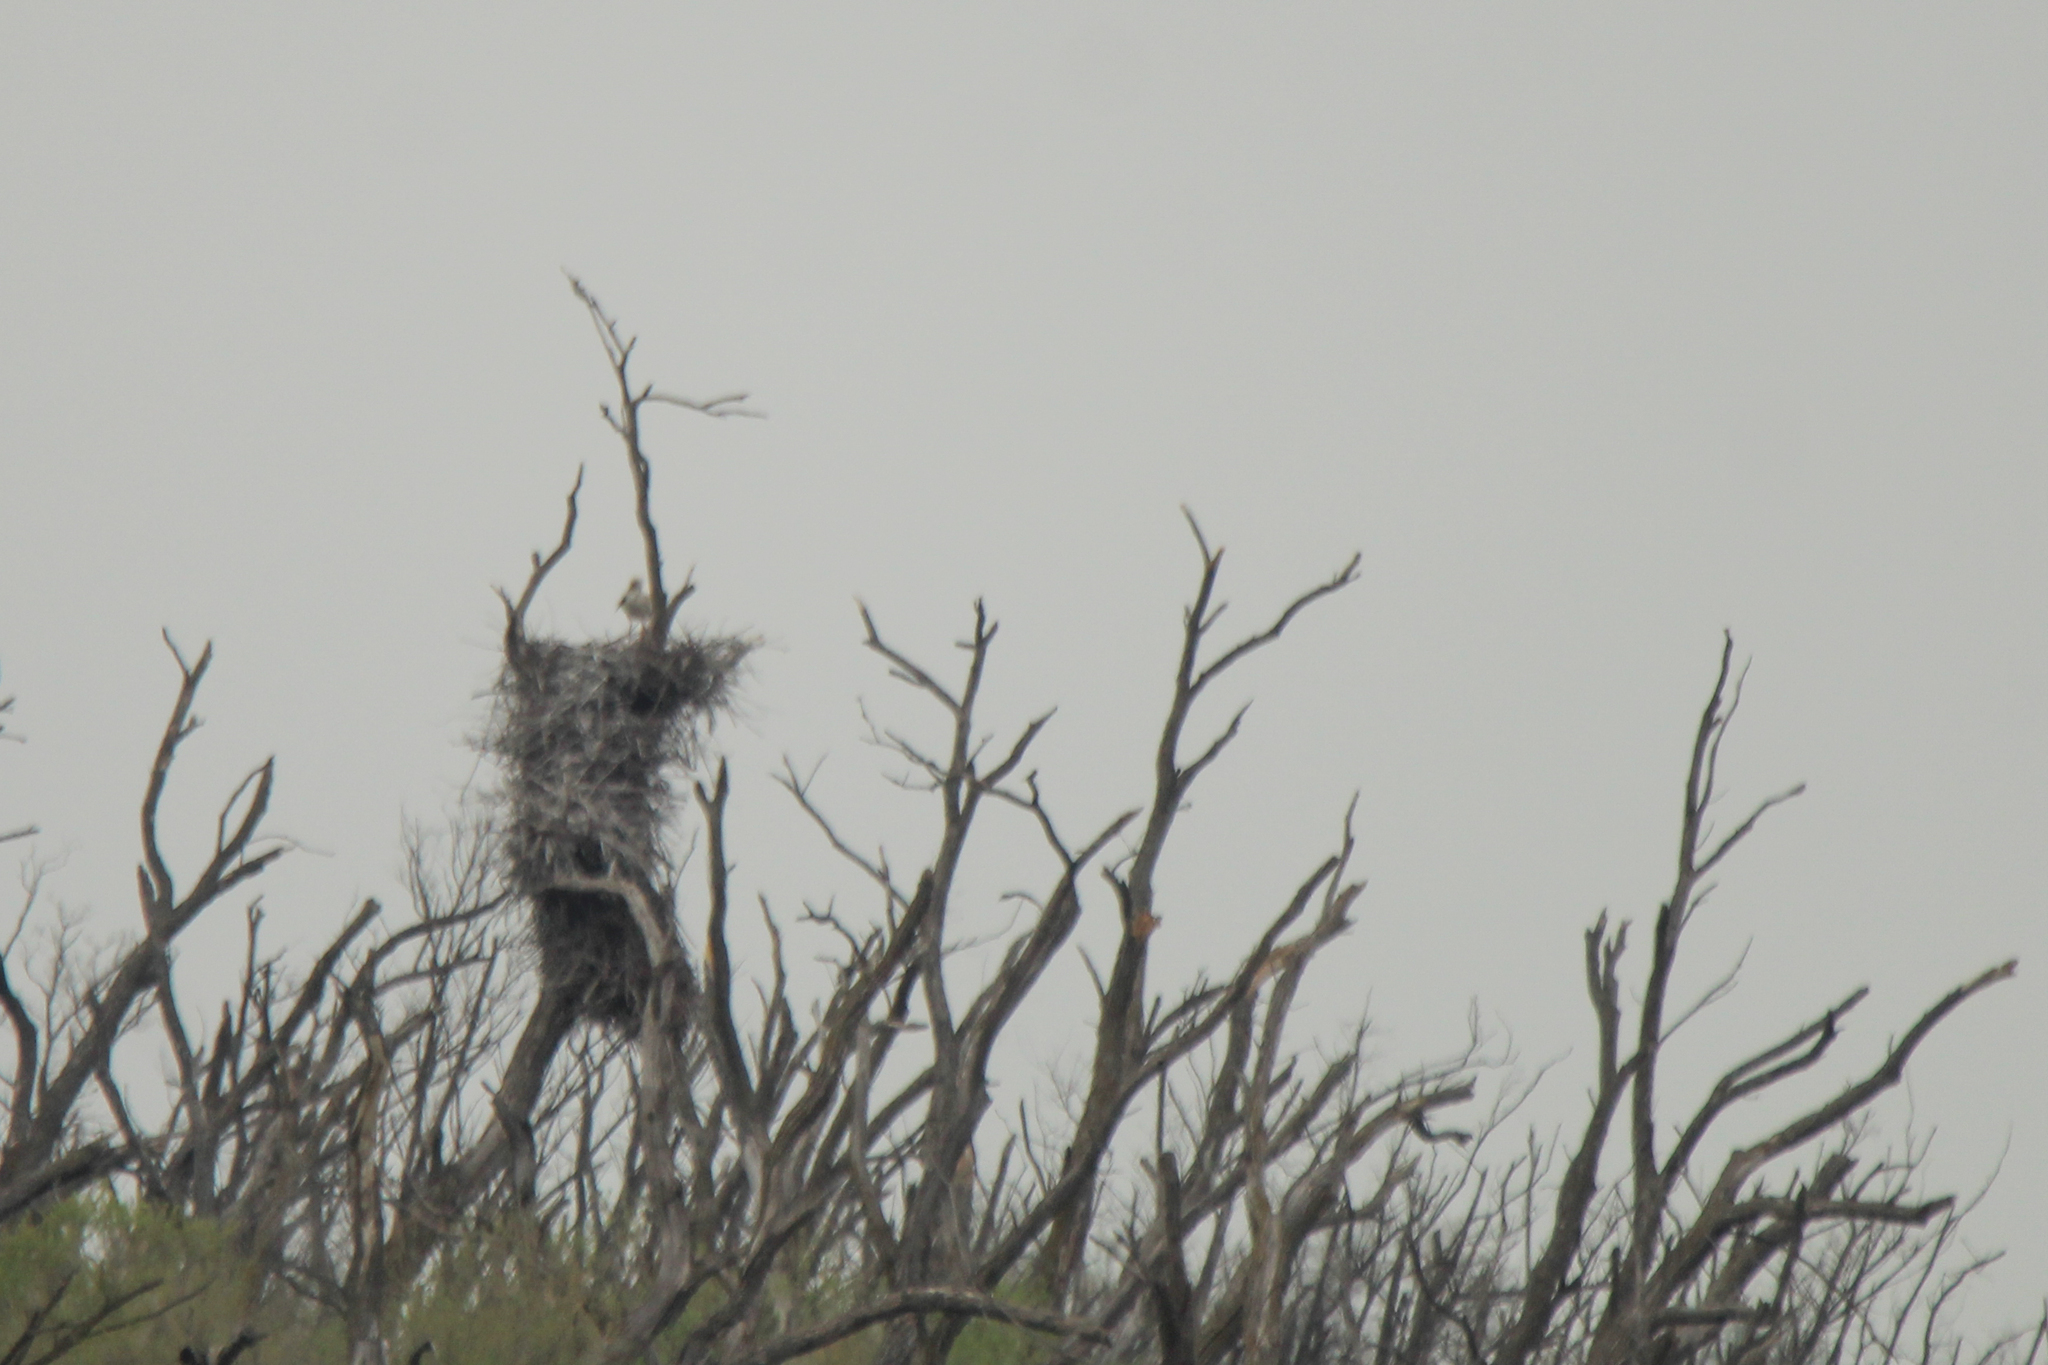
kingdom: Animalia
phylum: Chordata
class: Aves
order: Ciconiiformes
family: Ciconiidae
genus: Ciconia
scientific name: Ciconia boyciana
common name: Oriental stork
